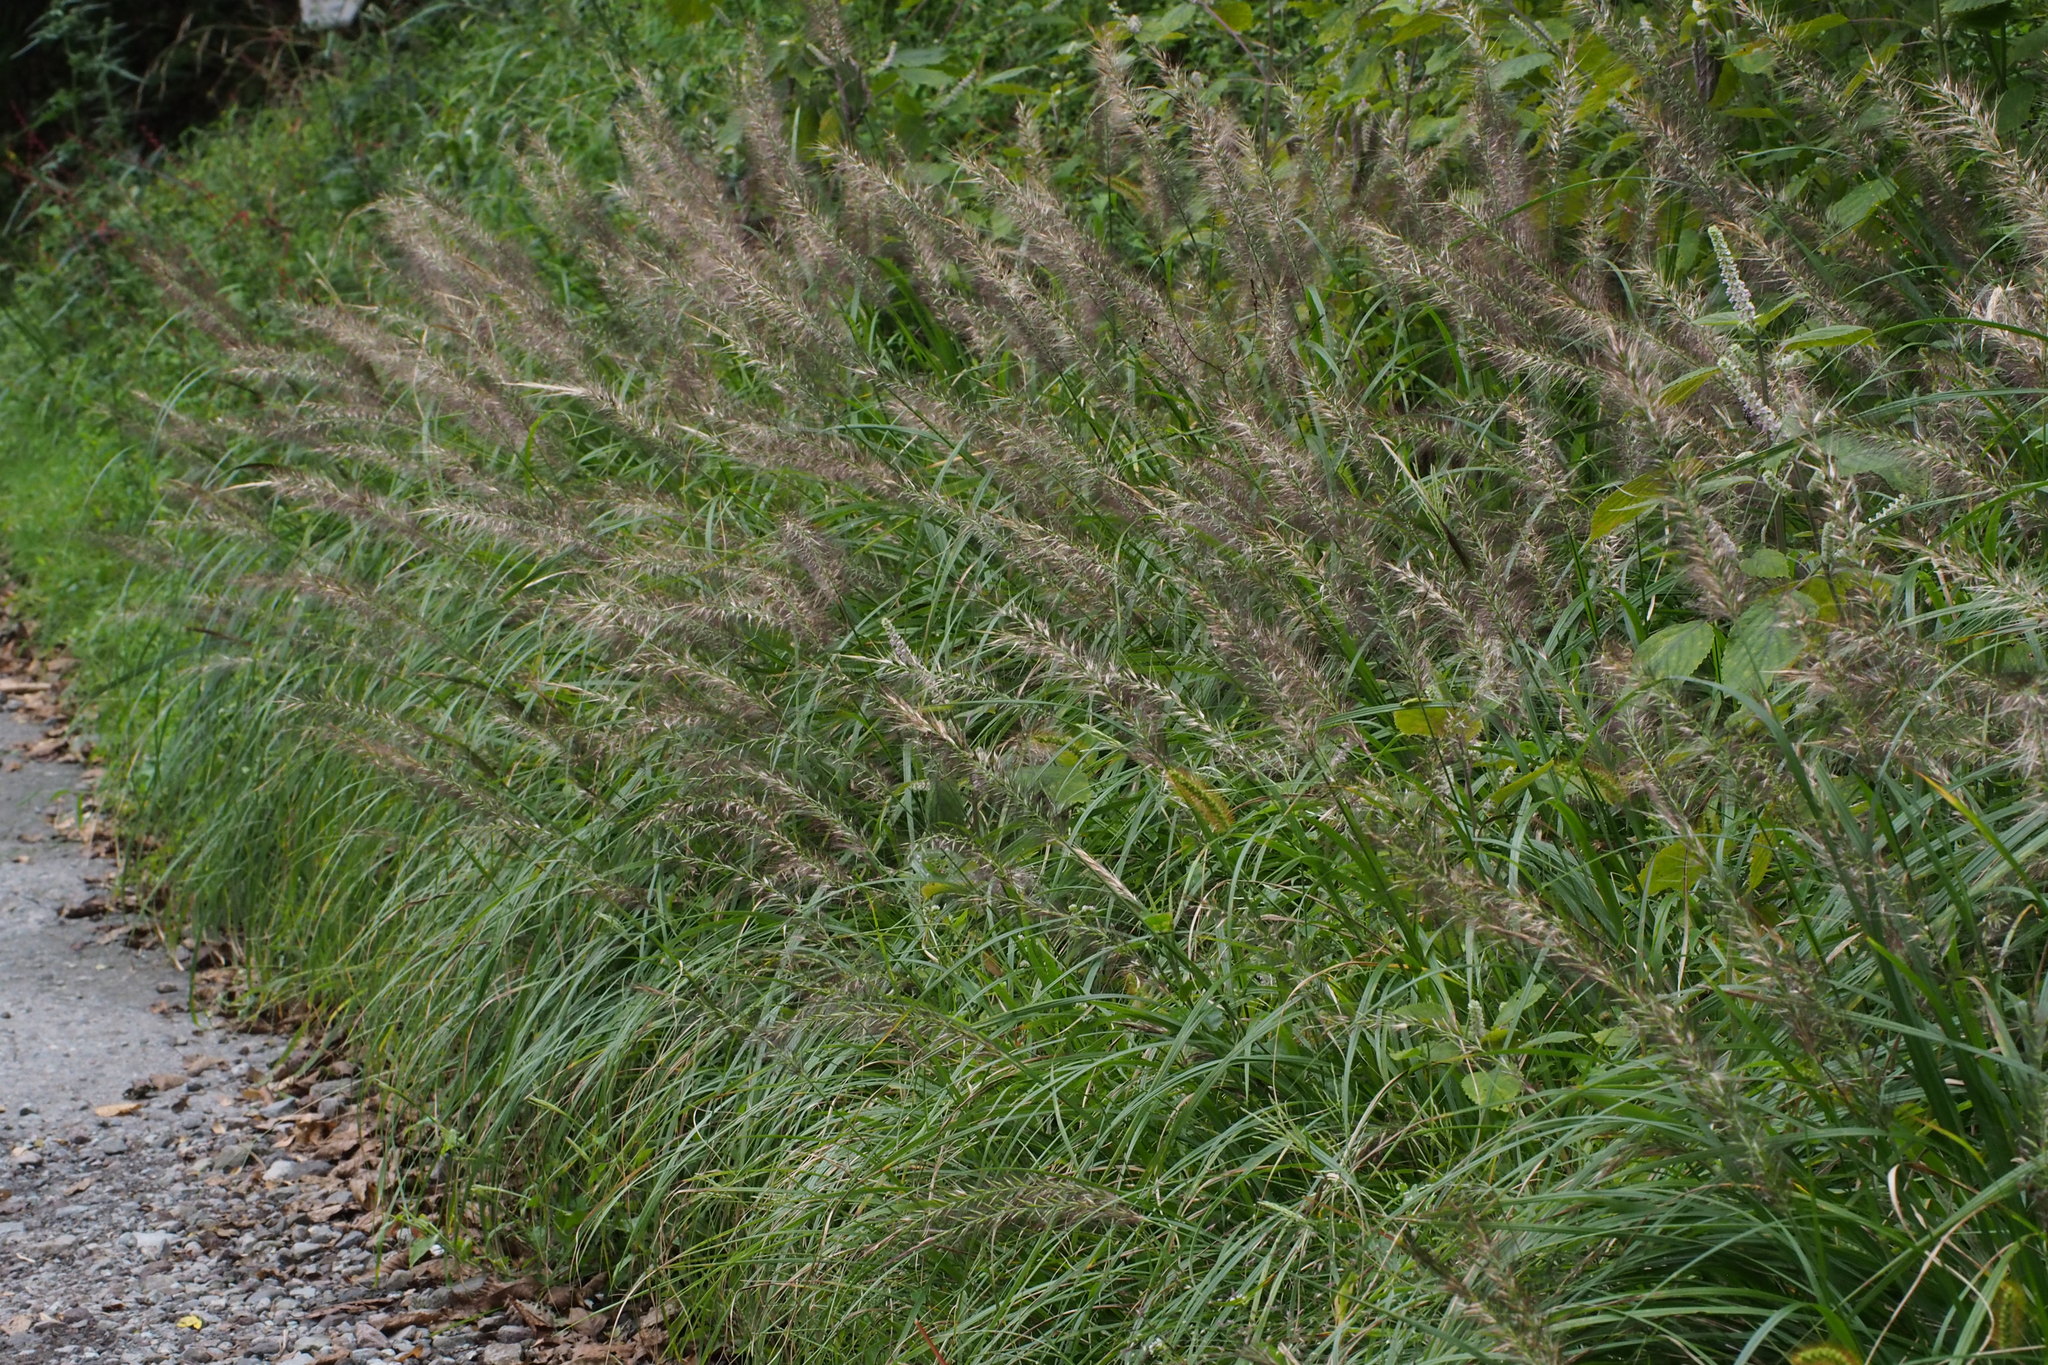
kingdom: Plantae
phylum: Tracheophyta
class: Liliopsida
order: Poales
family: Poaceae
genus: Cenchrus
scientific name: Cenchrus alopecuroides
